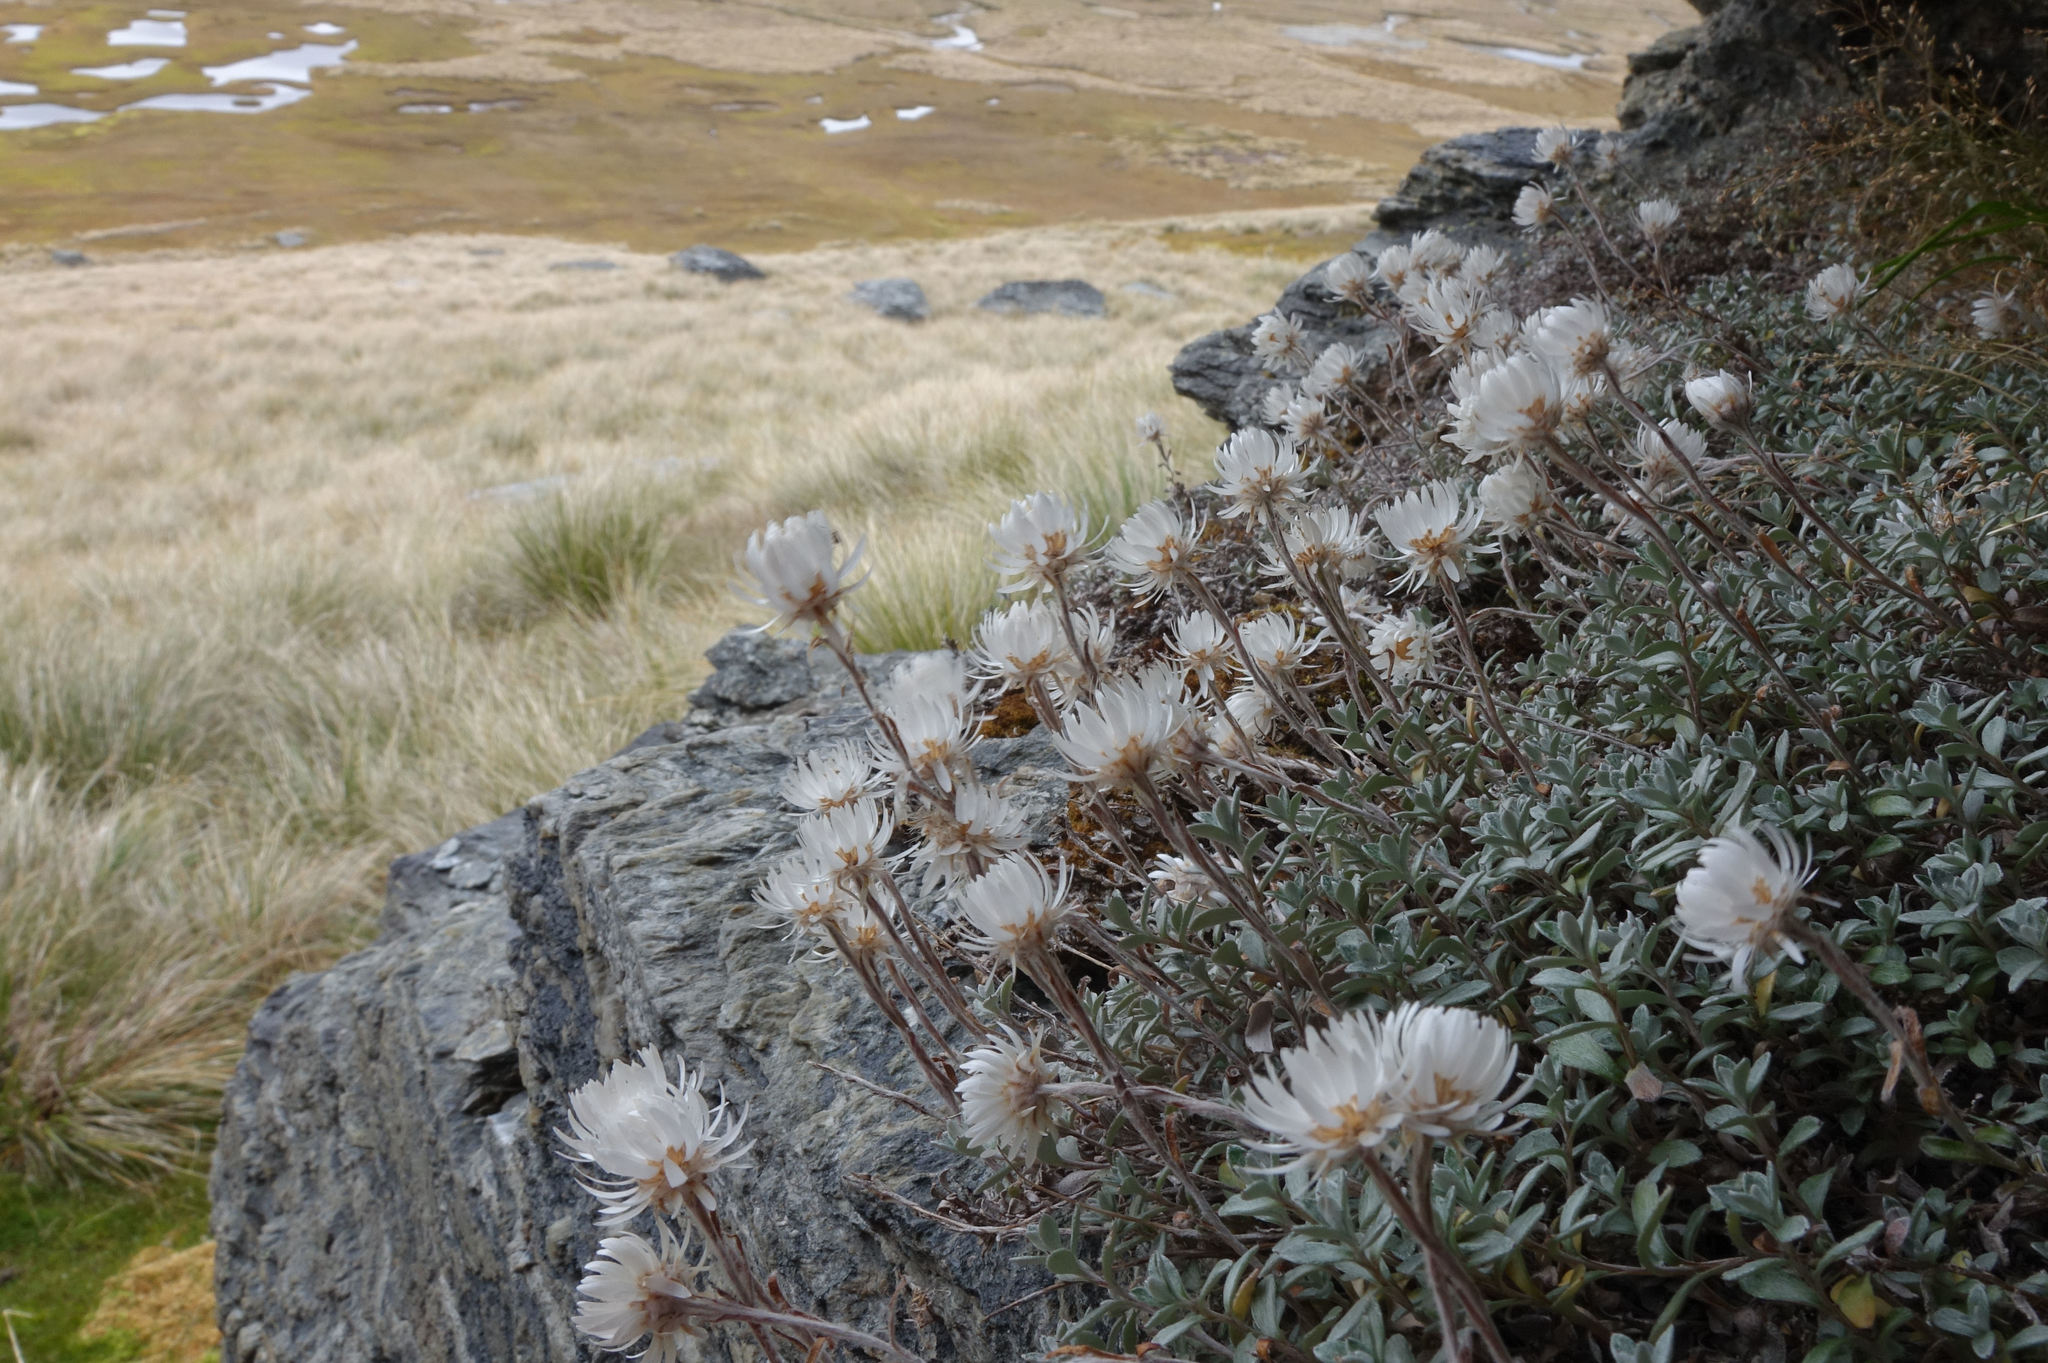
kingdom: Plantae
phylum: Tracheophyta
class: Magnoliopsida
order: Asterales
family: Asteraceae
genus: Anaphalioides
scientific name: Anaphalioides bellidioides
